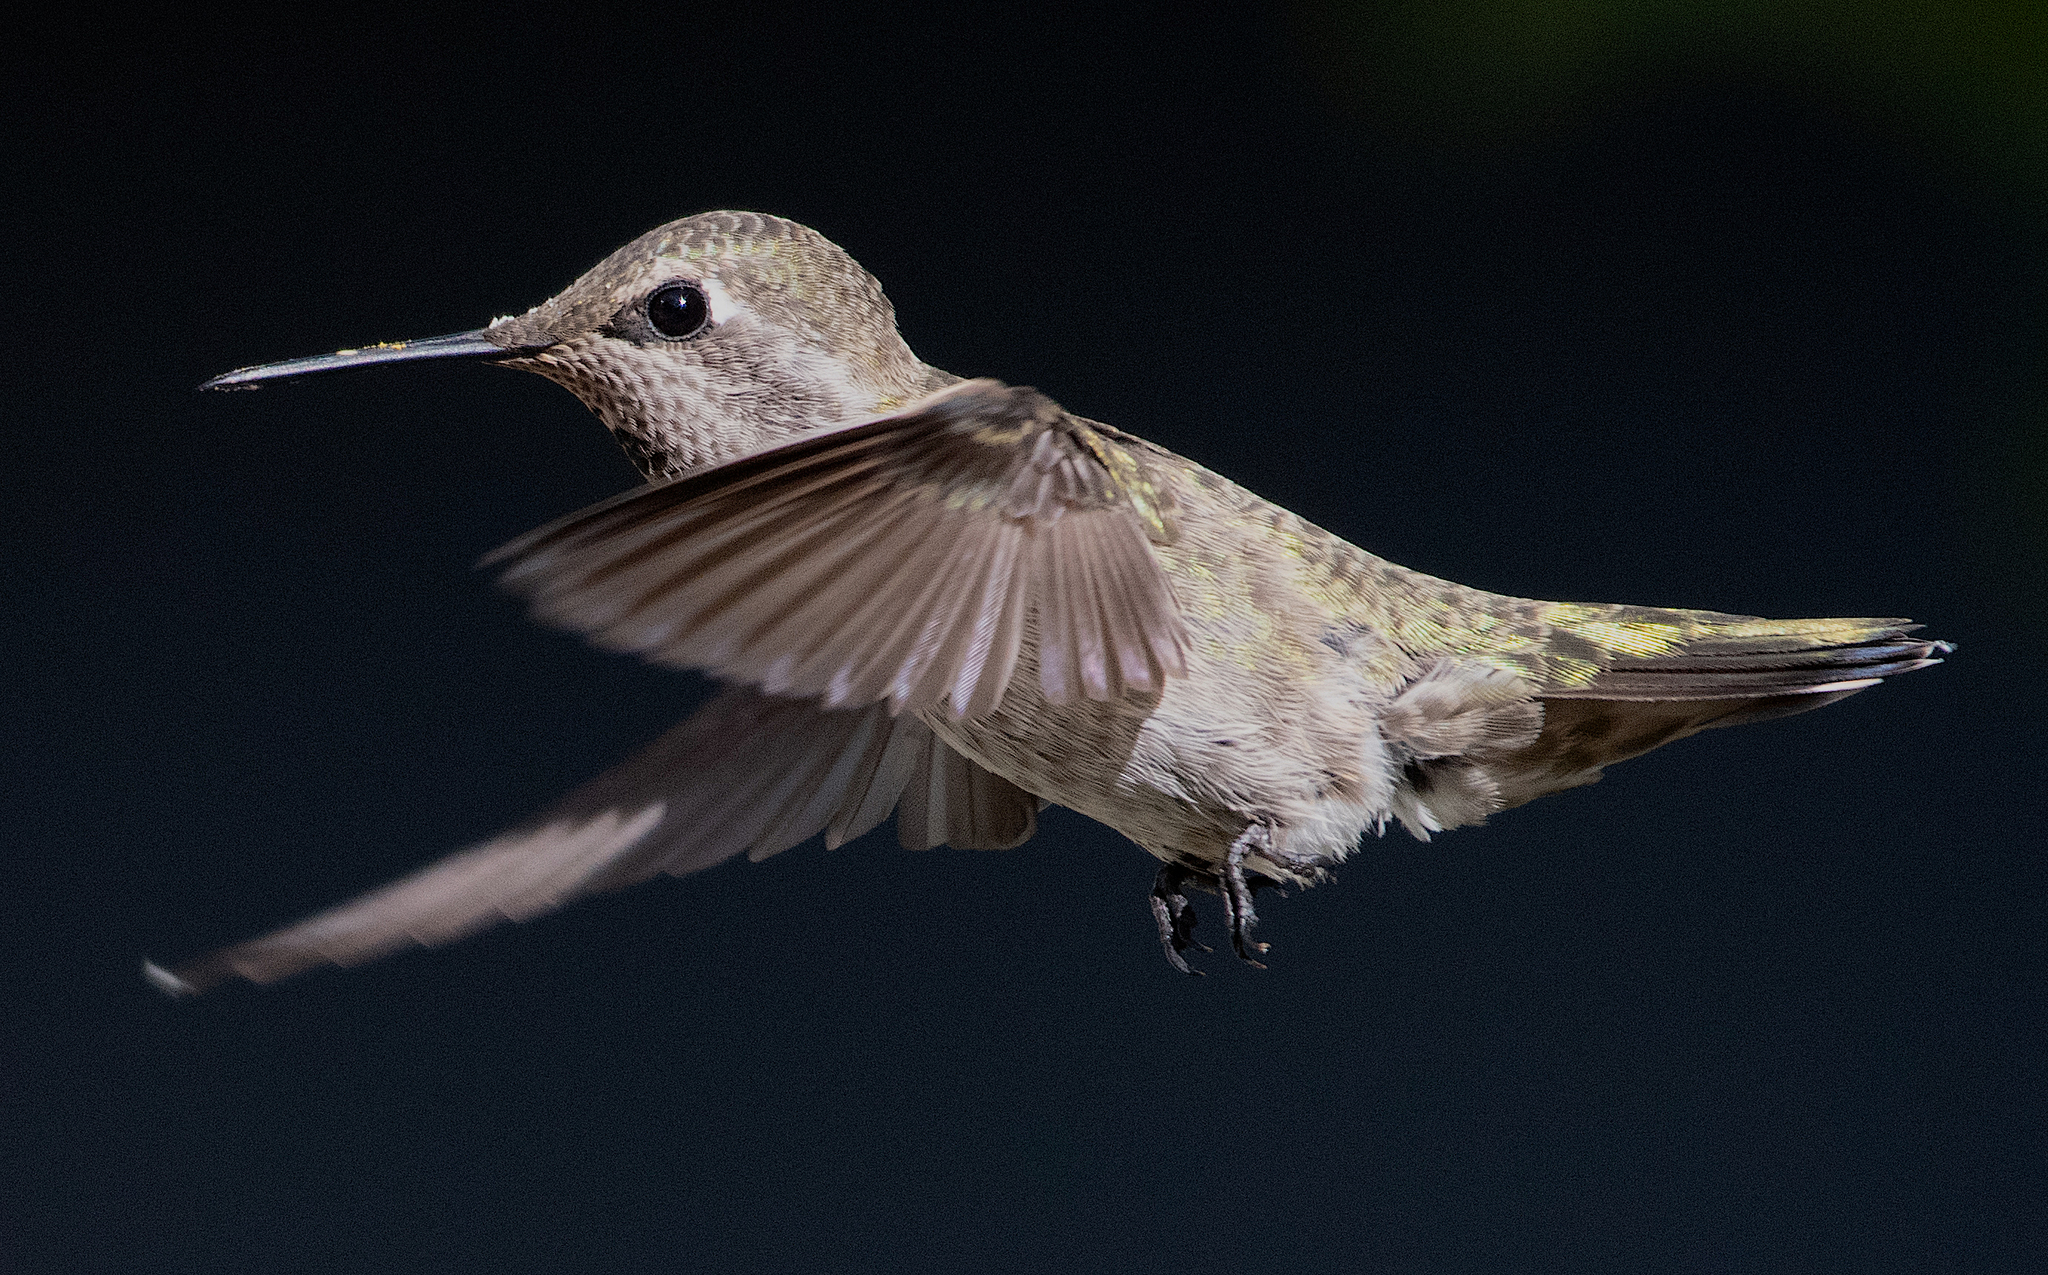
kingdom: Animalia
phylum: Chordata
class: Aves
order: Apodiformes
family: Trochilidae
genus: Calypte
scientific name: Calypte anna
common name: Anna's hummingbird
